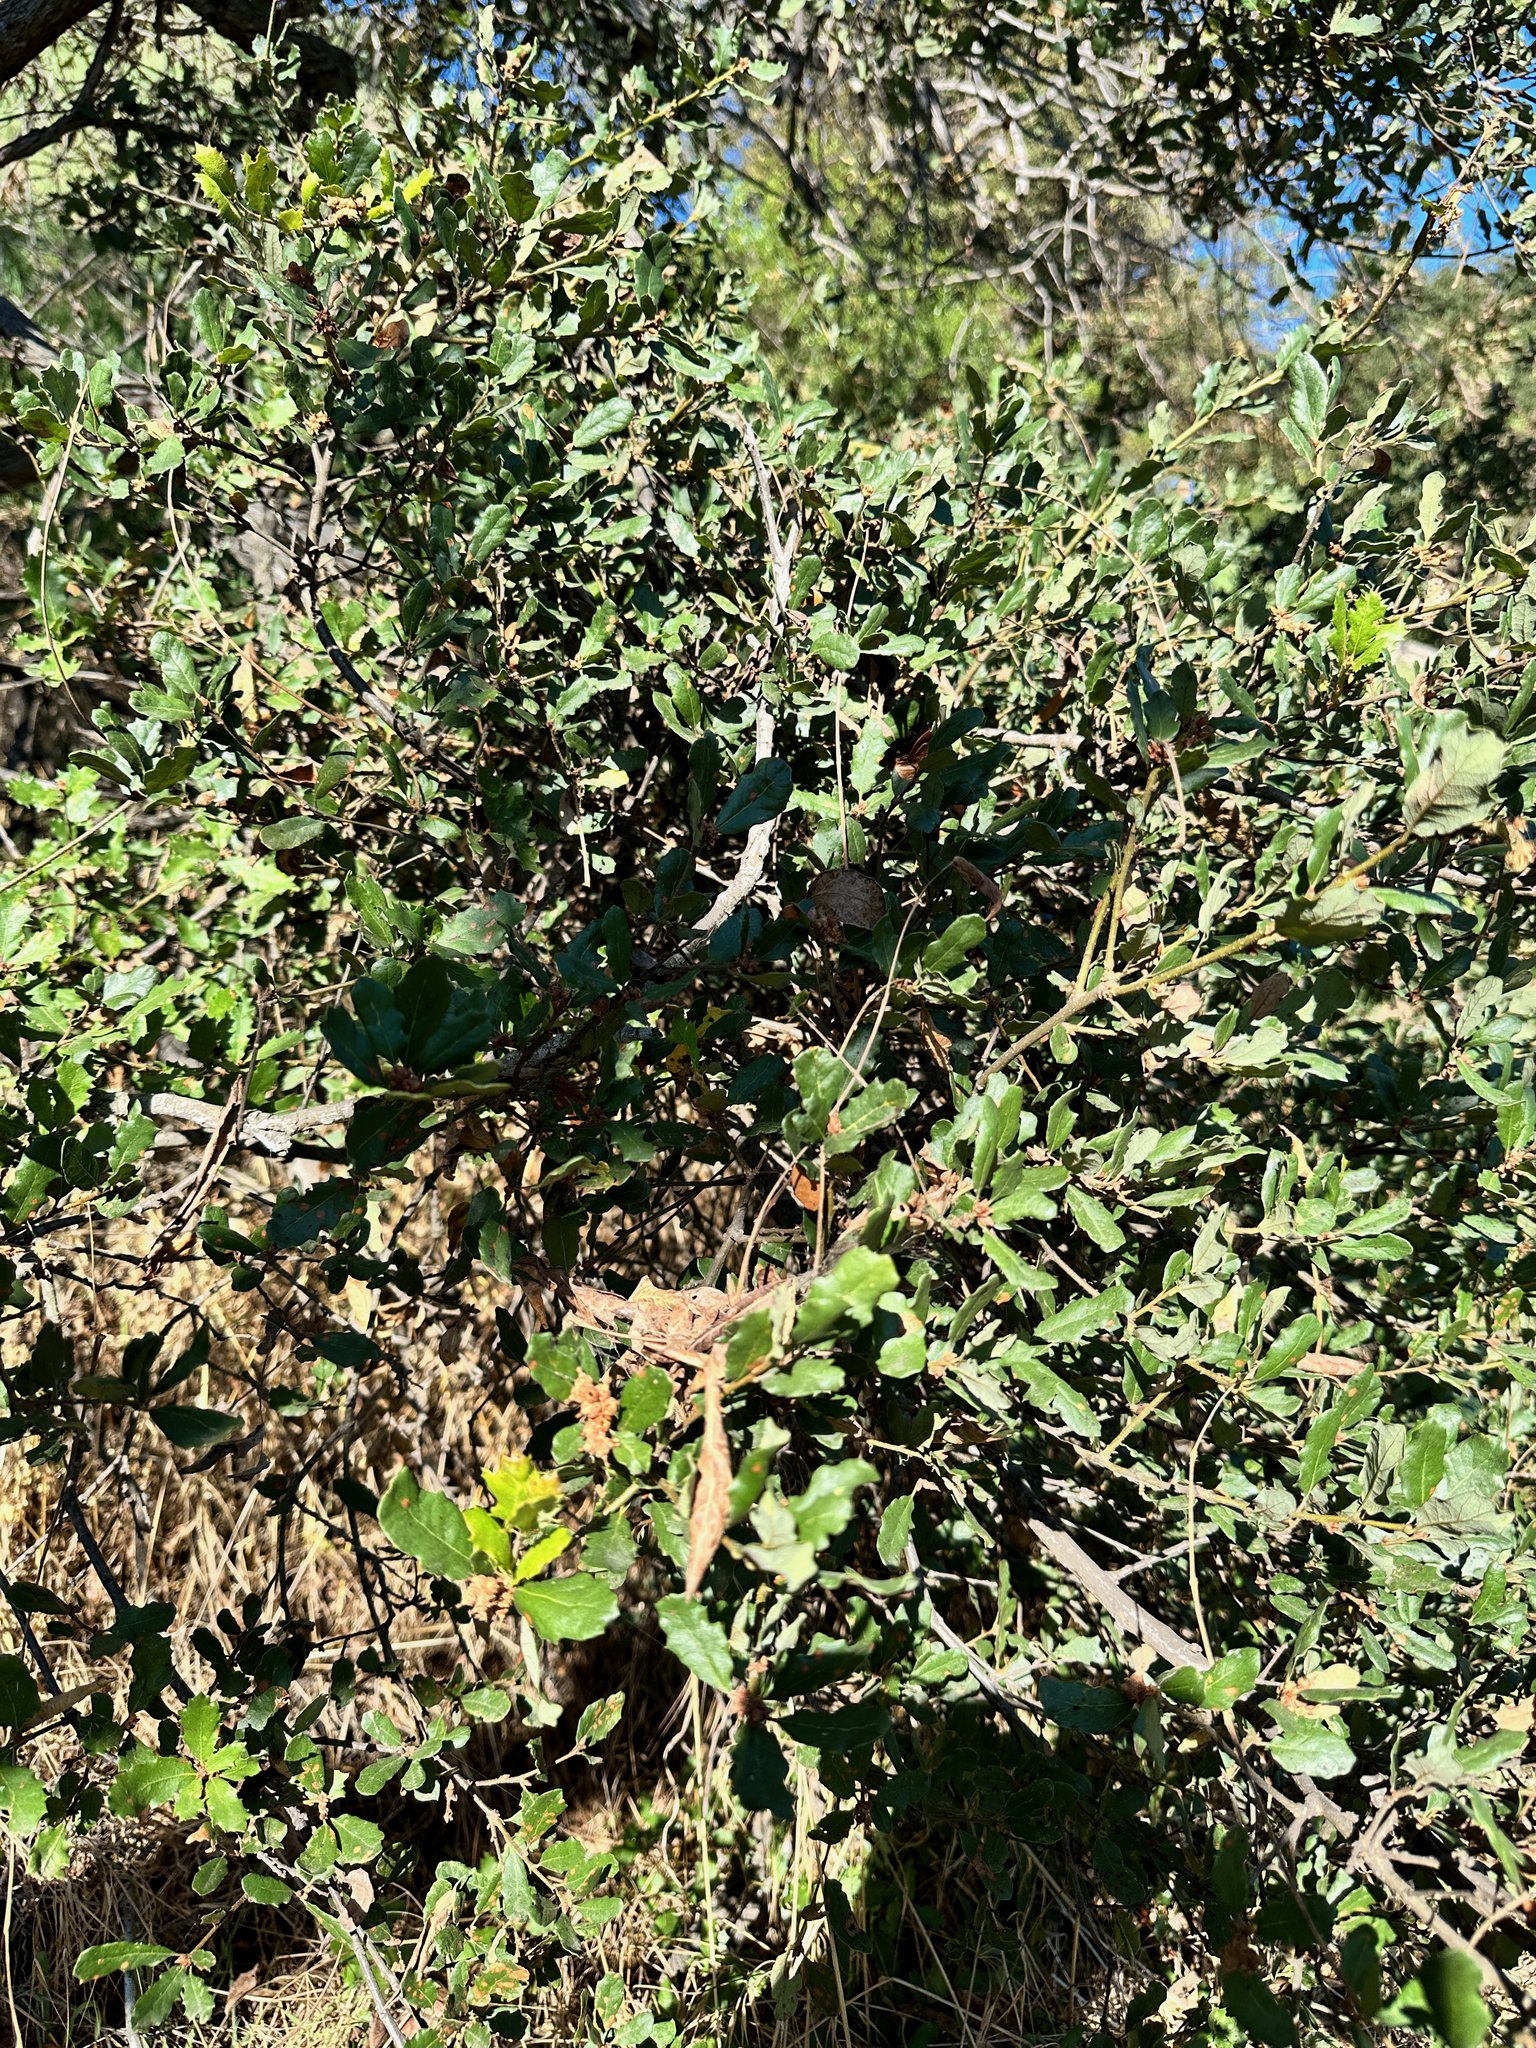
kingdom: Plantae
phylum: Tracheophyta
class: Magnoliopsida
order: Fagales
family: Fagaceae
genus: Quercus
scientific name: Quercus durata
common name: Leather oak
